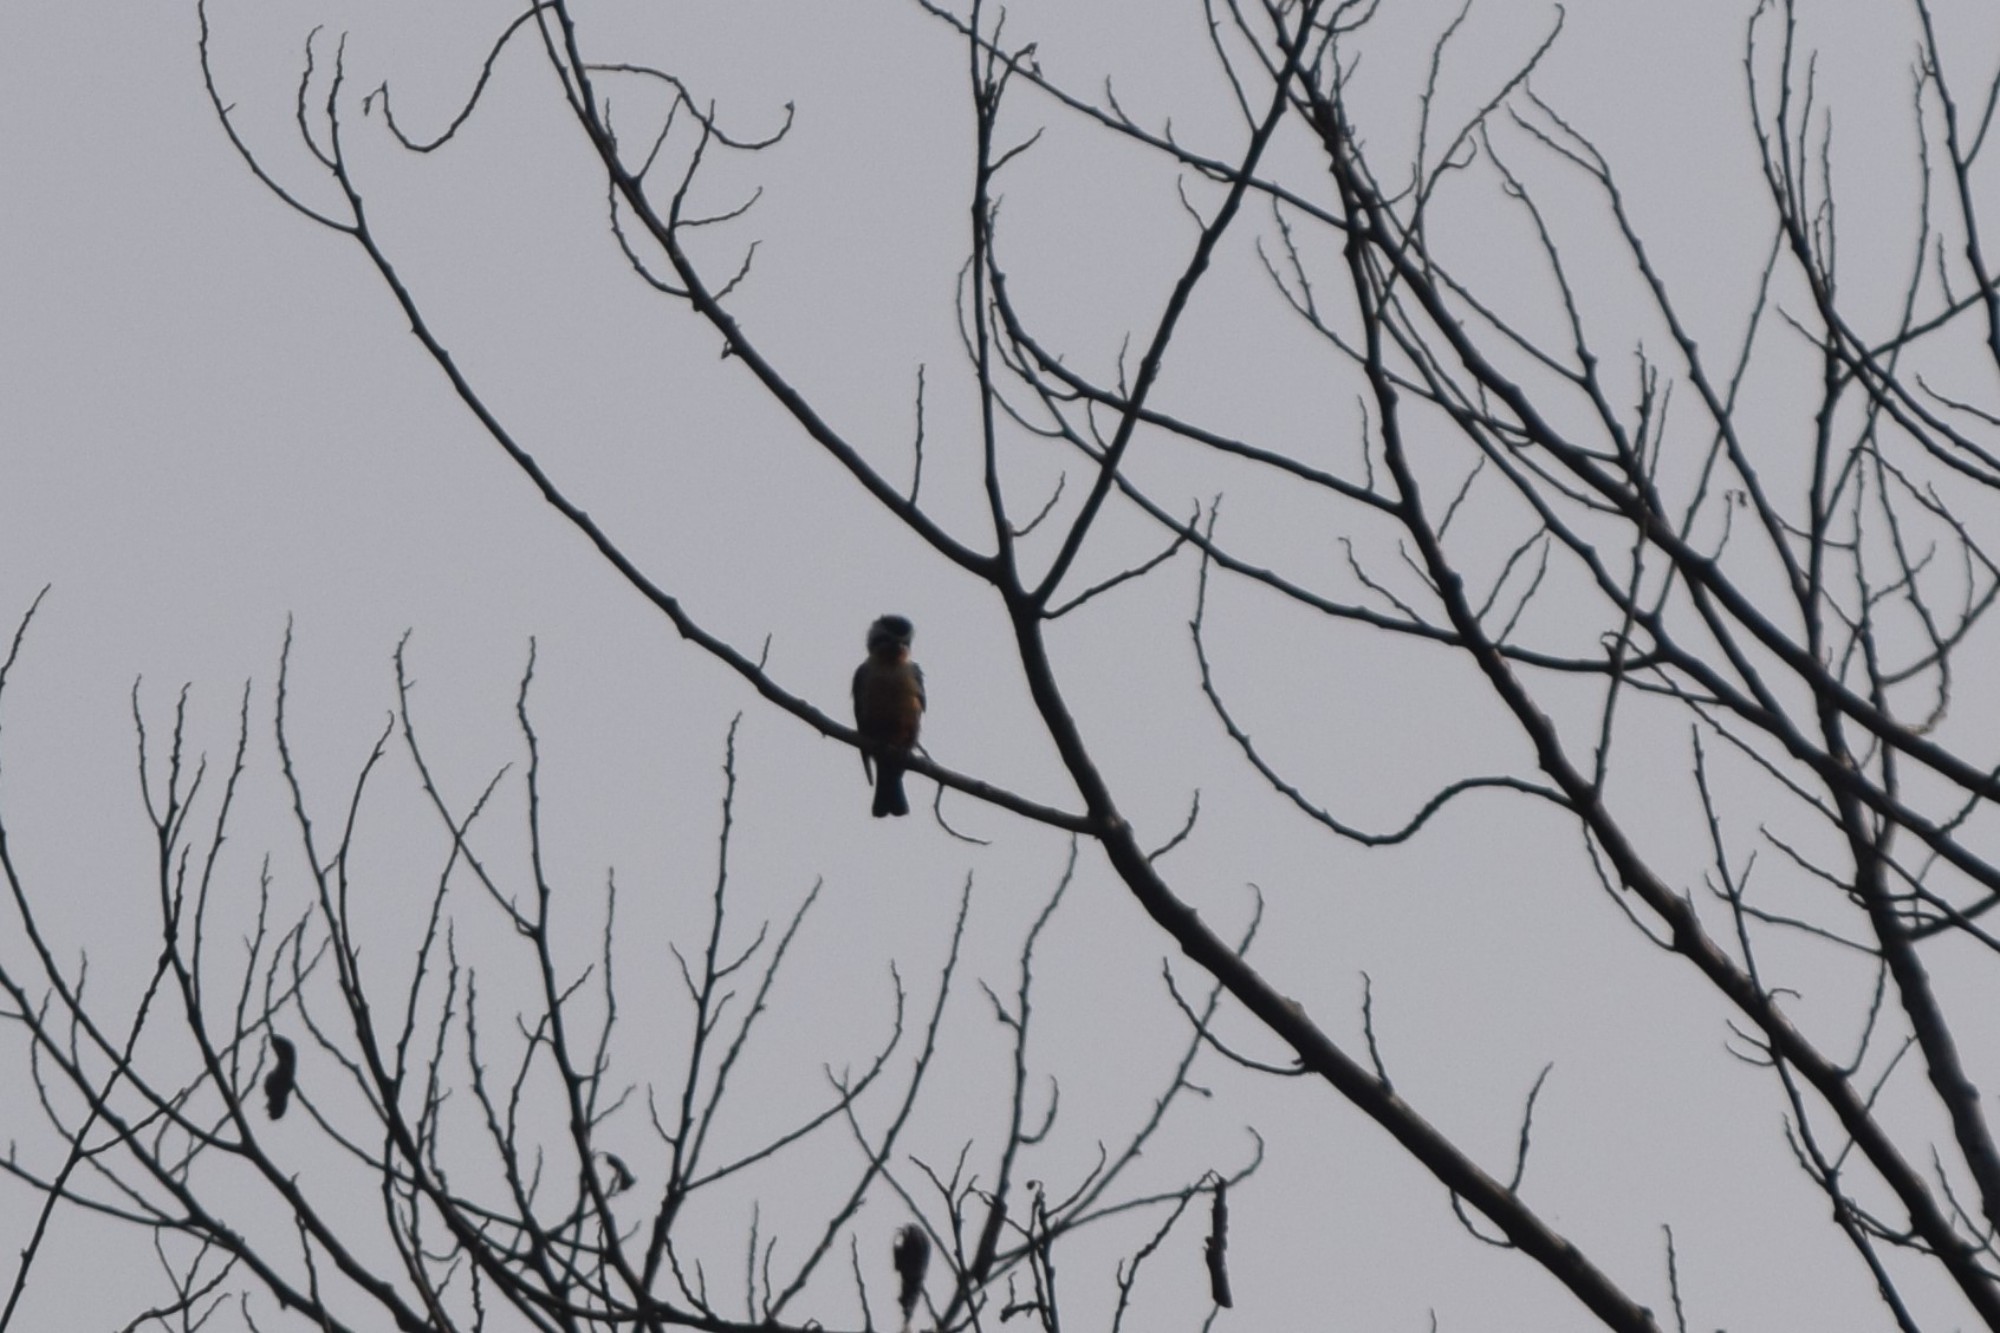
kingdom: Animalia
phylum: Chordata
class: Aves
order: Falconiformes
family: Falconidae
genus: Microhierax
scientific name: Microhierax caerulescens
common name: Collared falconet
